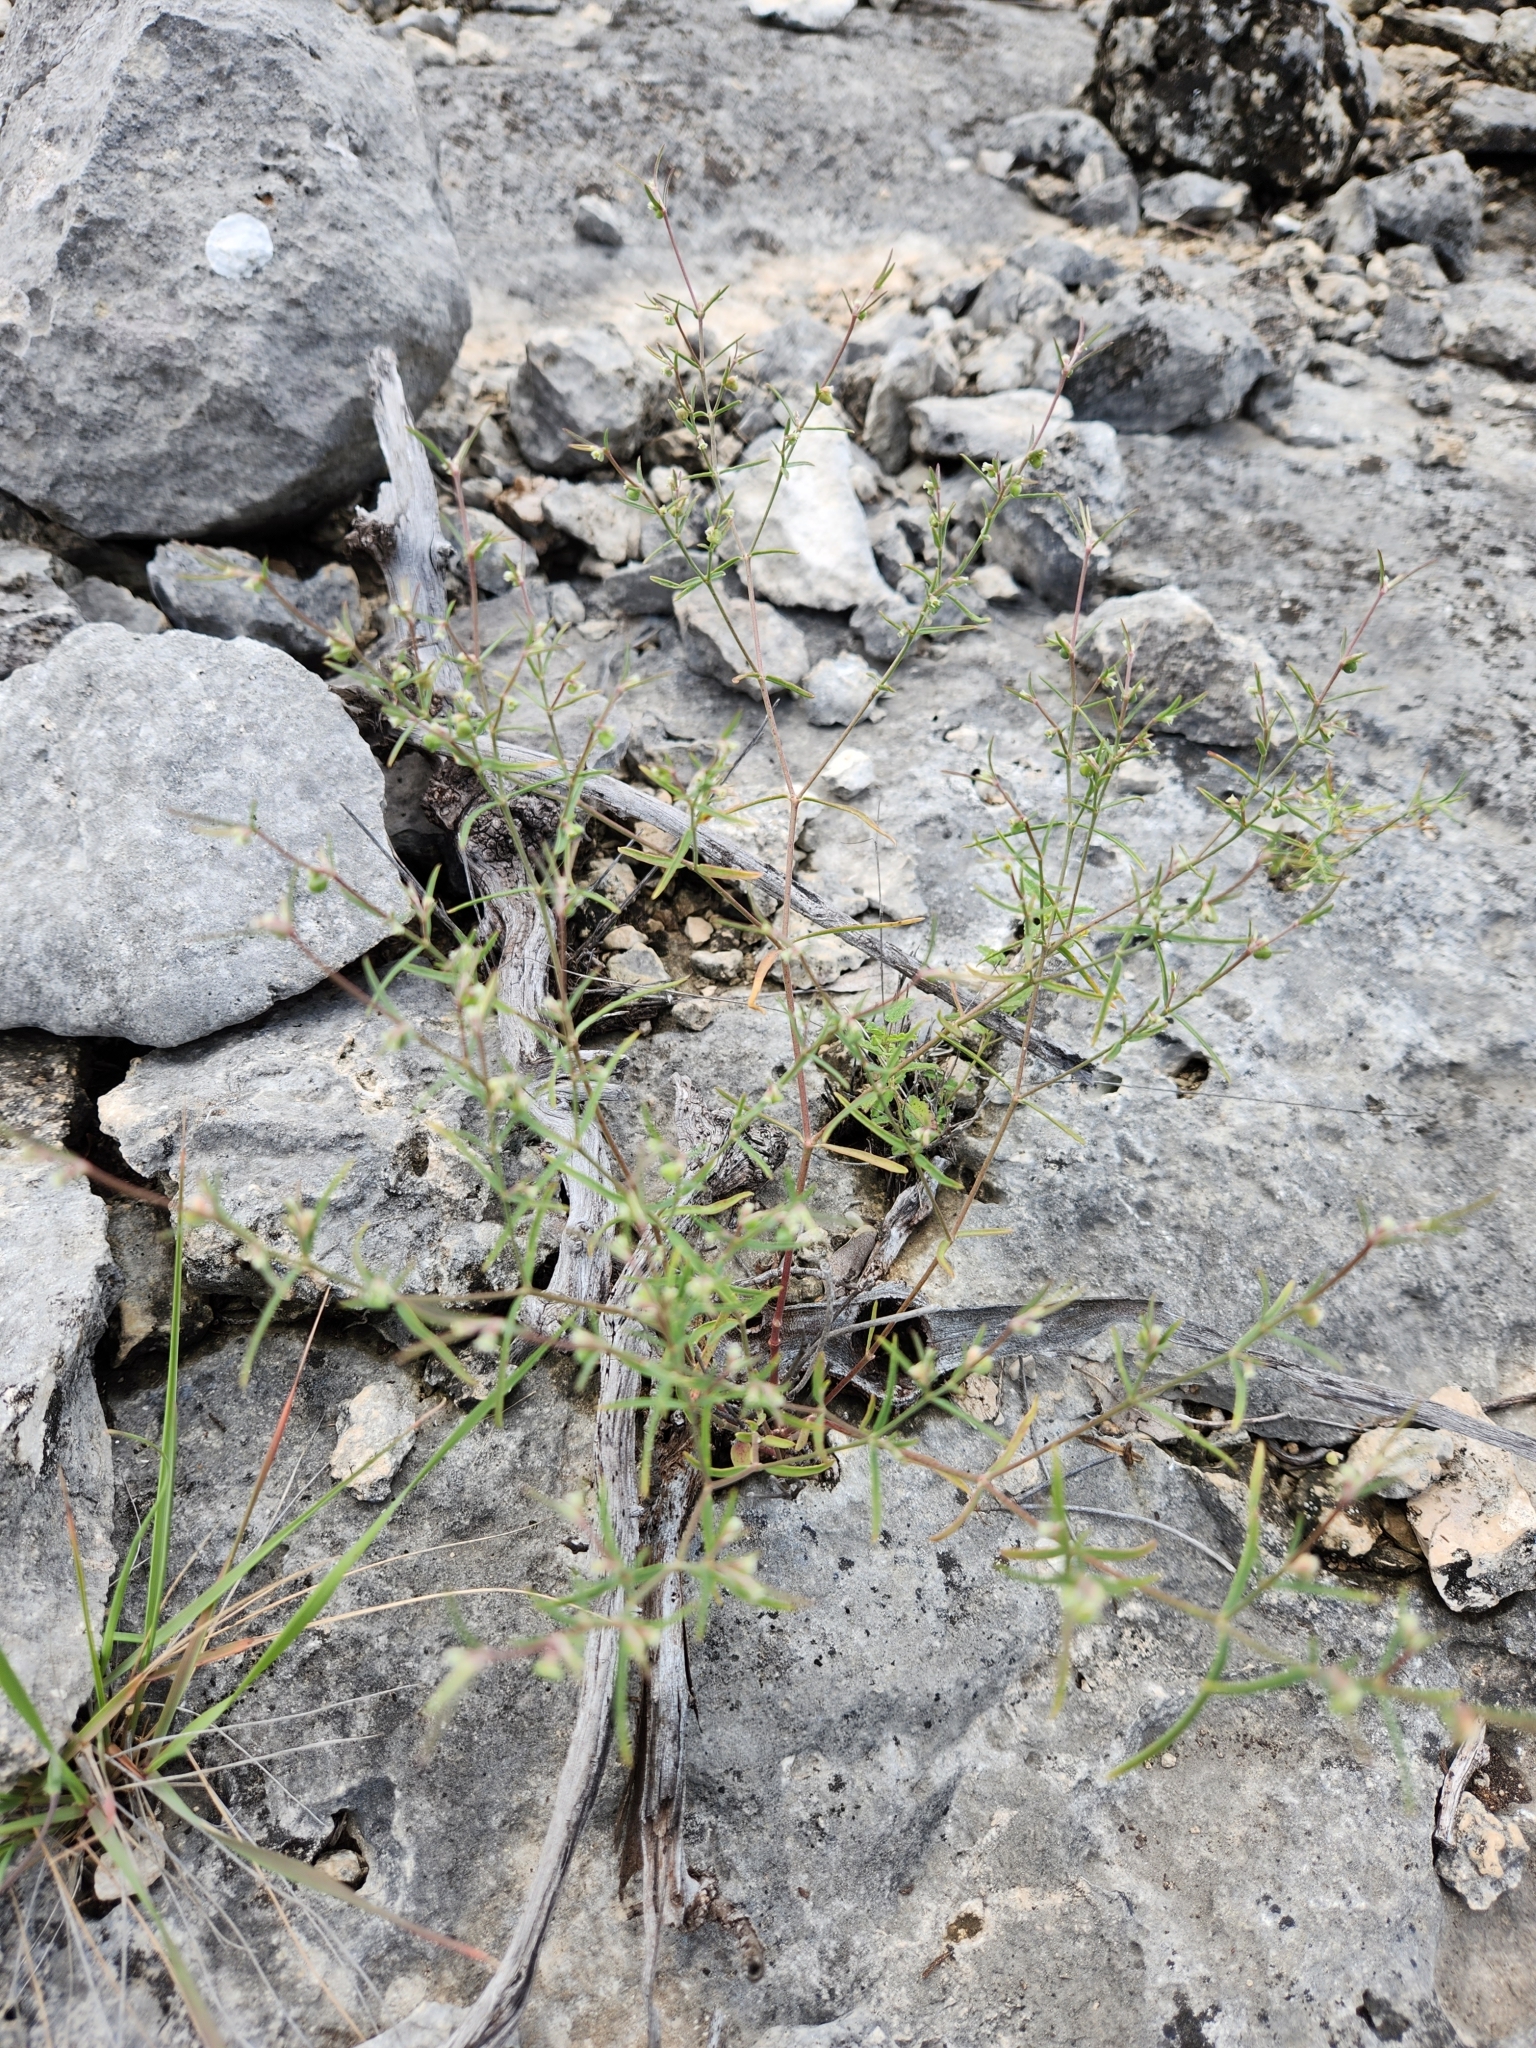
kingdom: Plantae
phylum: Tracheophyta
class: Magnoliopsida
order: Malpighiales
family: Euphorbiaceae
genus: Euphorbia
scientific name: Euphorbia angusta
